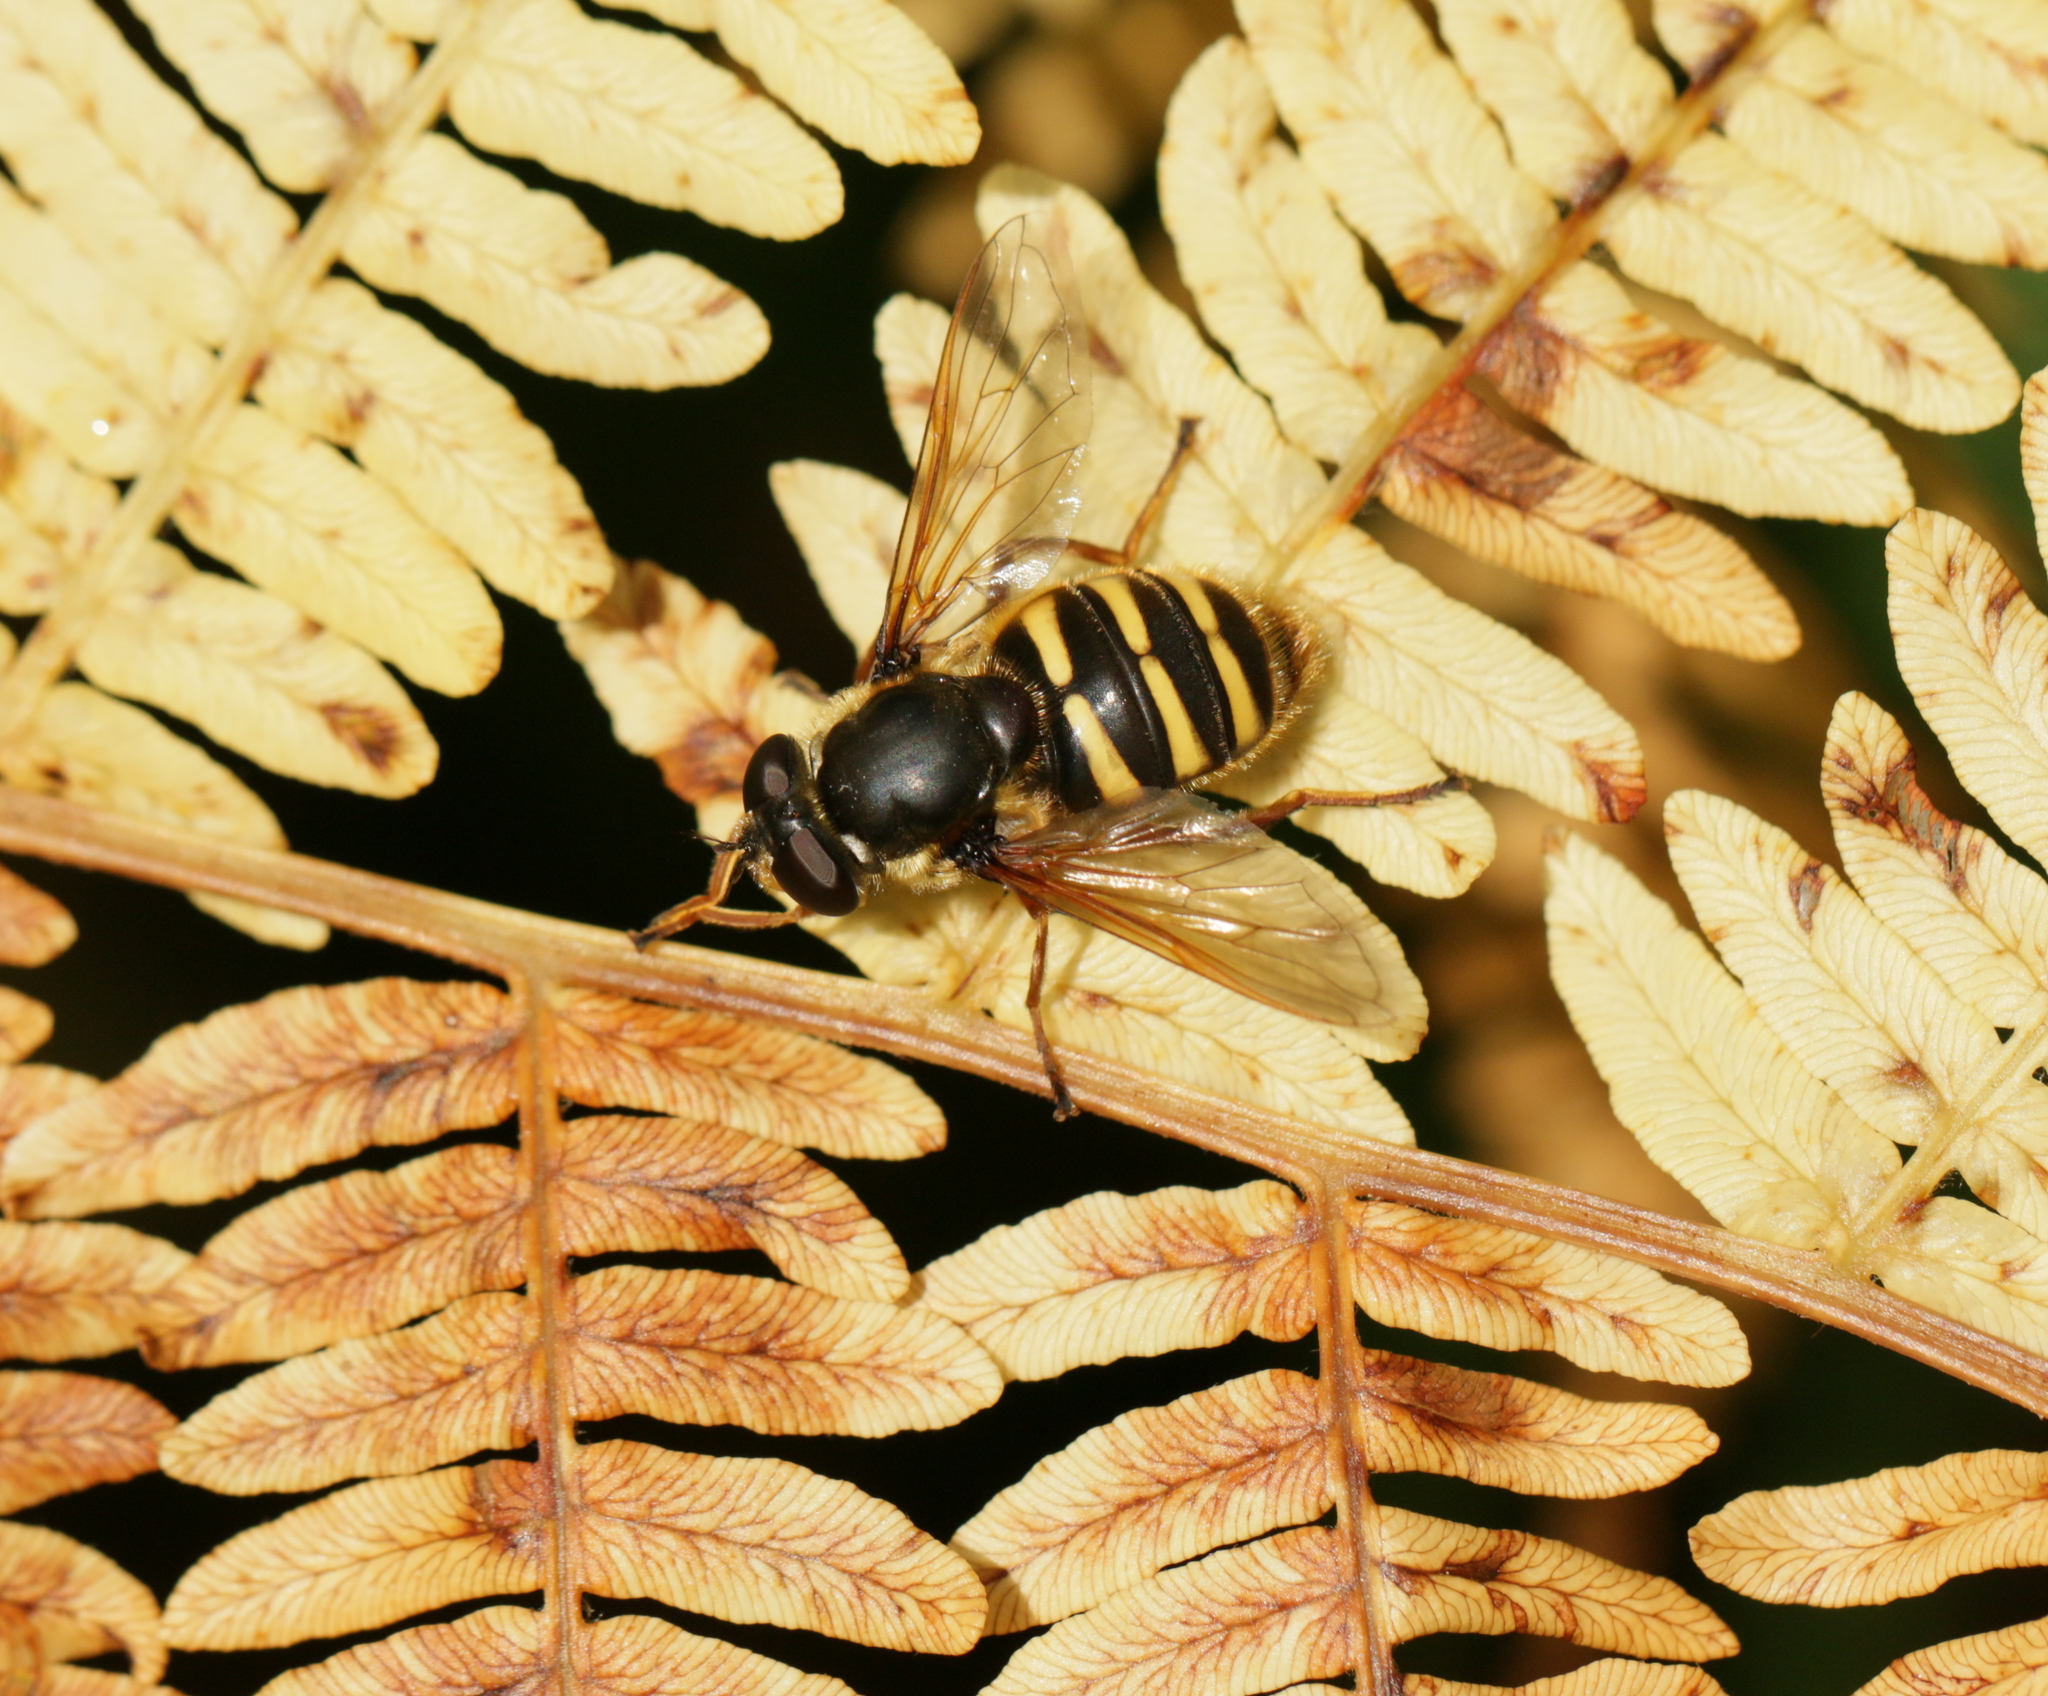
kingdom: Animalia
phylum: Arthropoda
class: Insecta
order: Diptera
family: Syrphidae
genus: Sericomyia
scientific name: Sericomyia silentis
